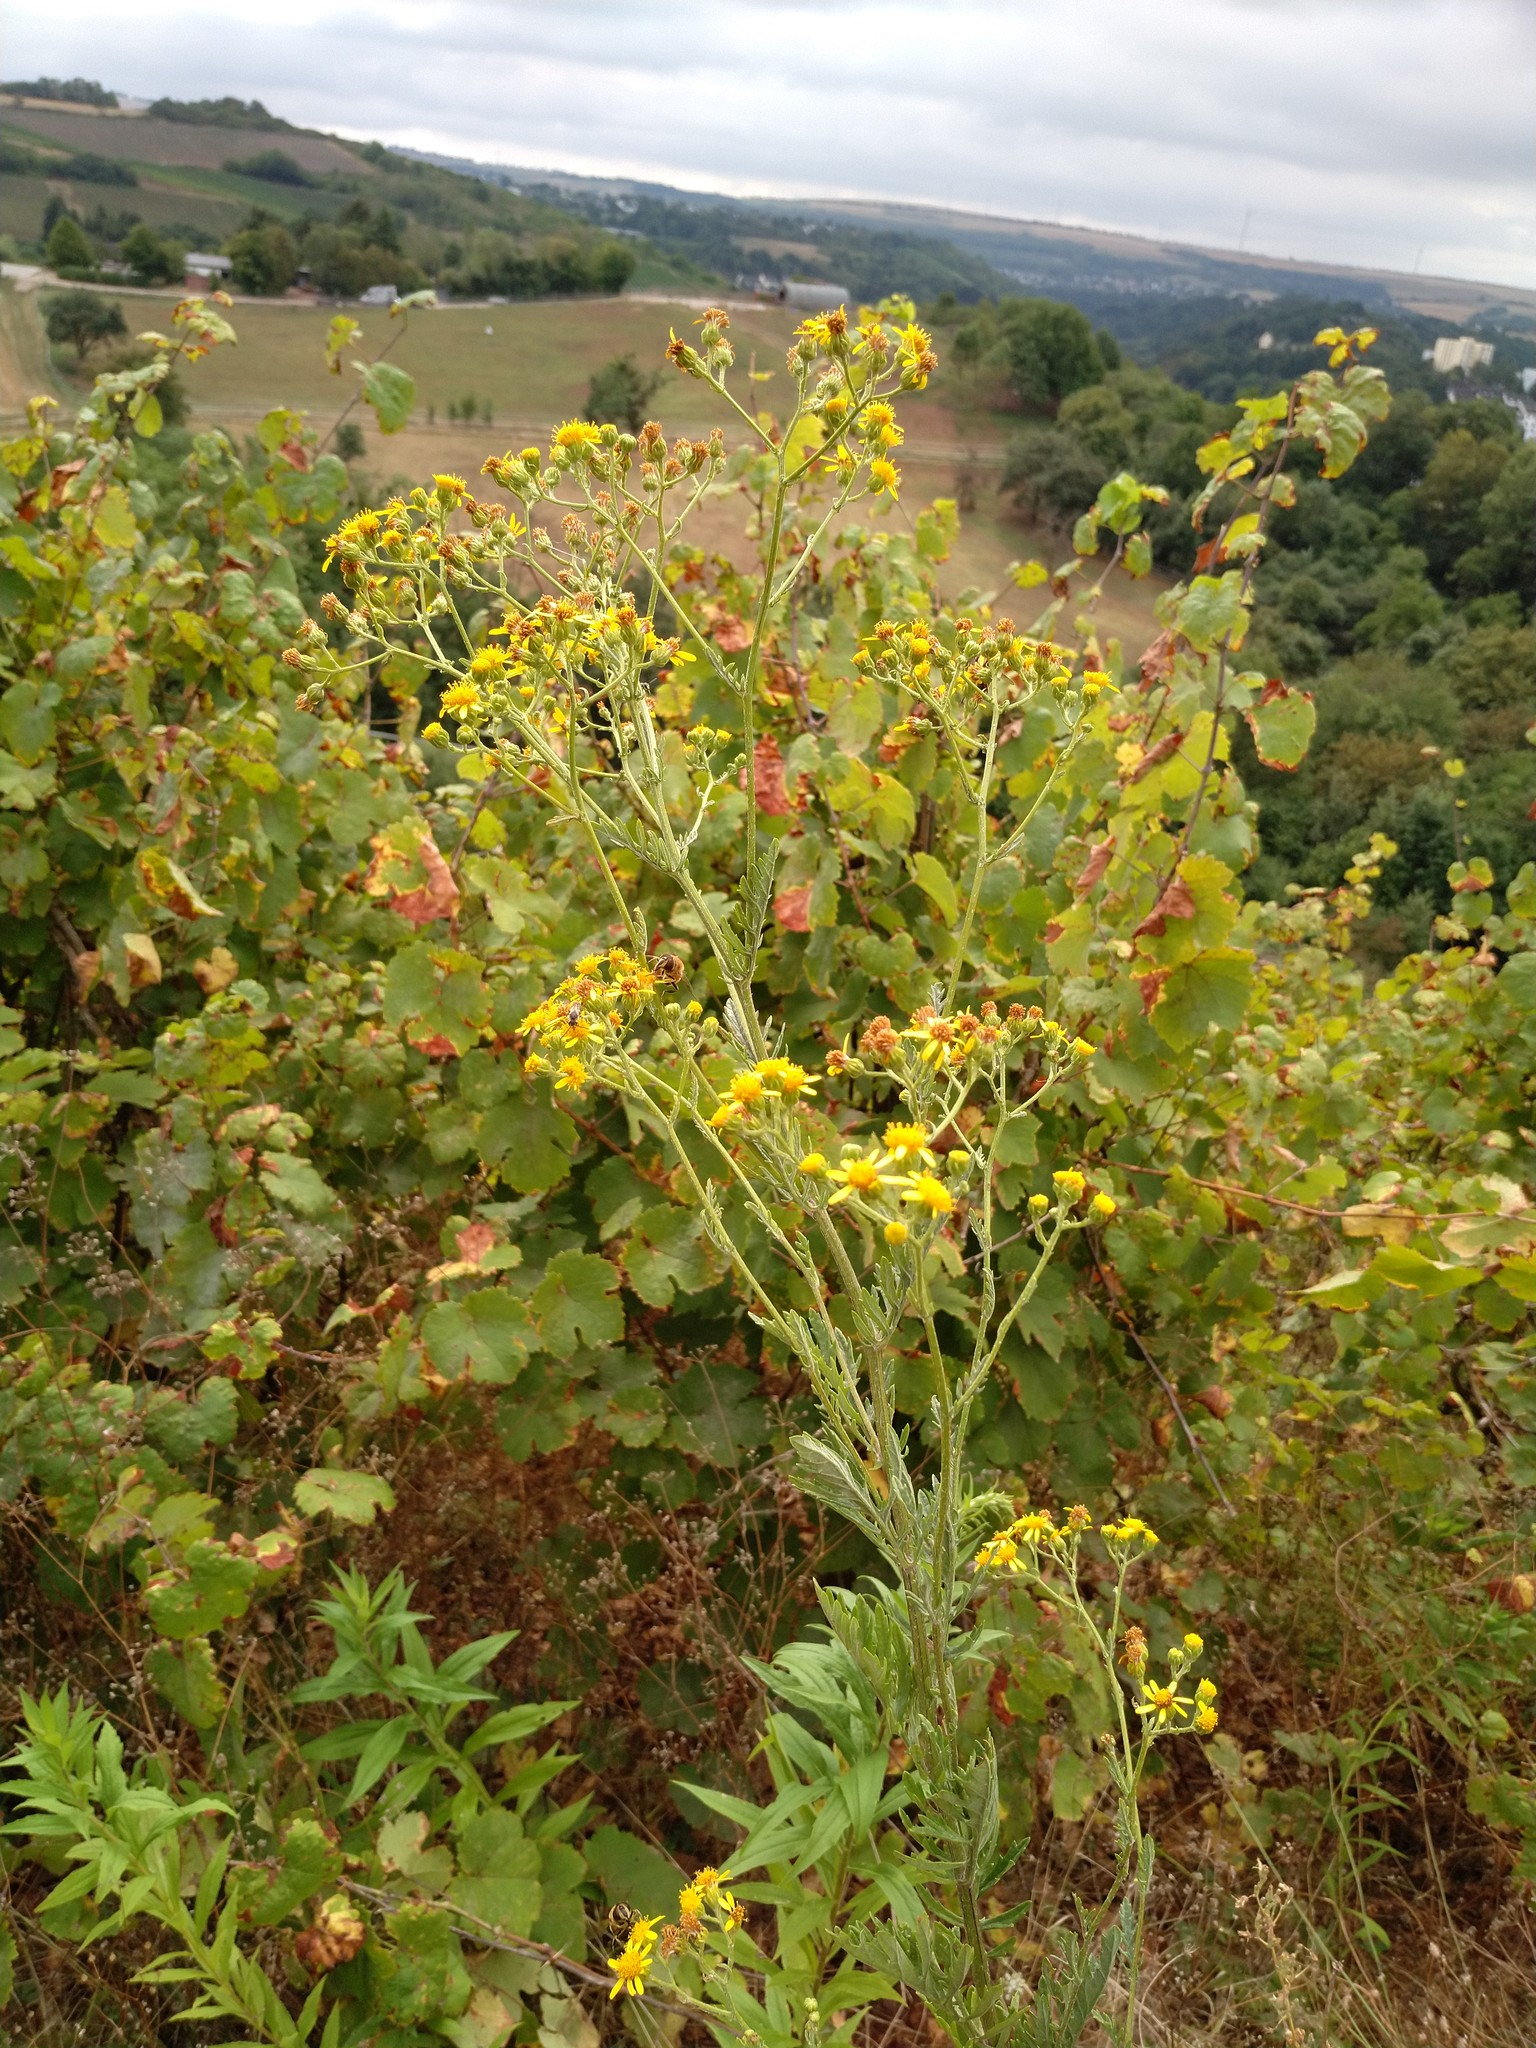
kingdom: Plantae
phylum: Tracheophyta
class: Magnoliopsida
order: Asterales
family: Asteraceae
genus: Jacobaea
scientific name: Jacobaea vulgaris
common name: Stinking willie
